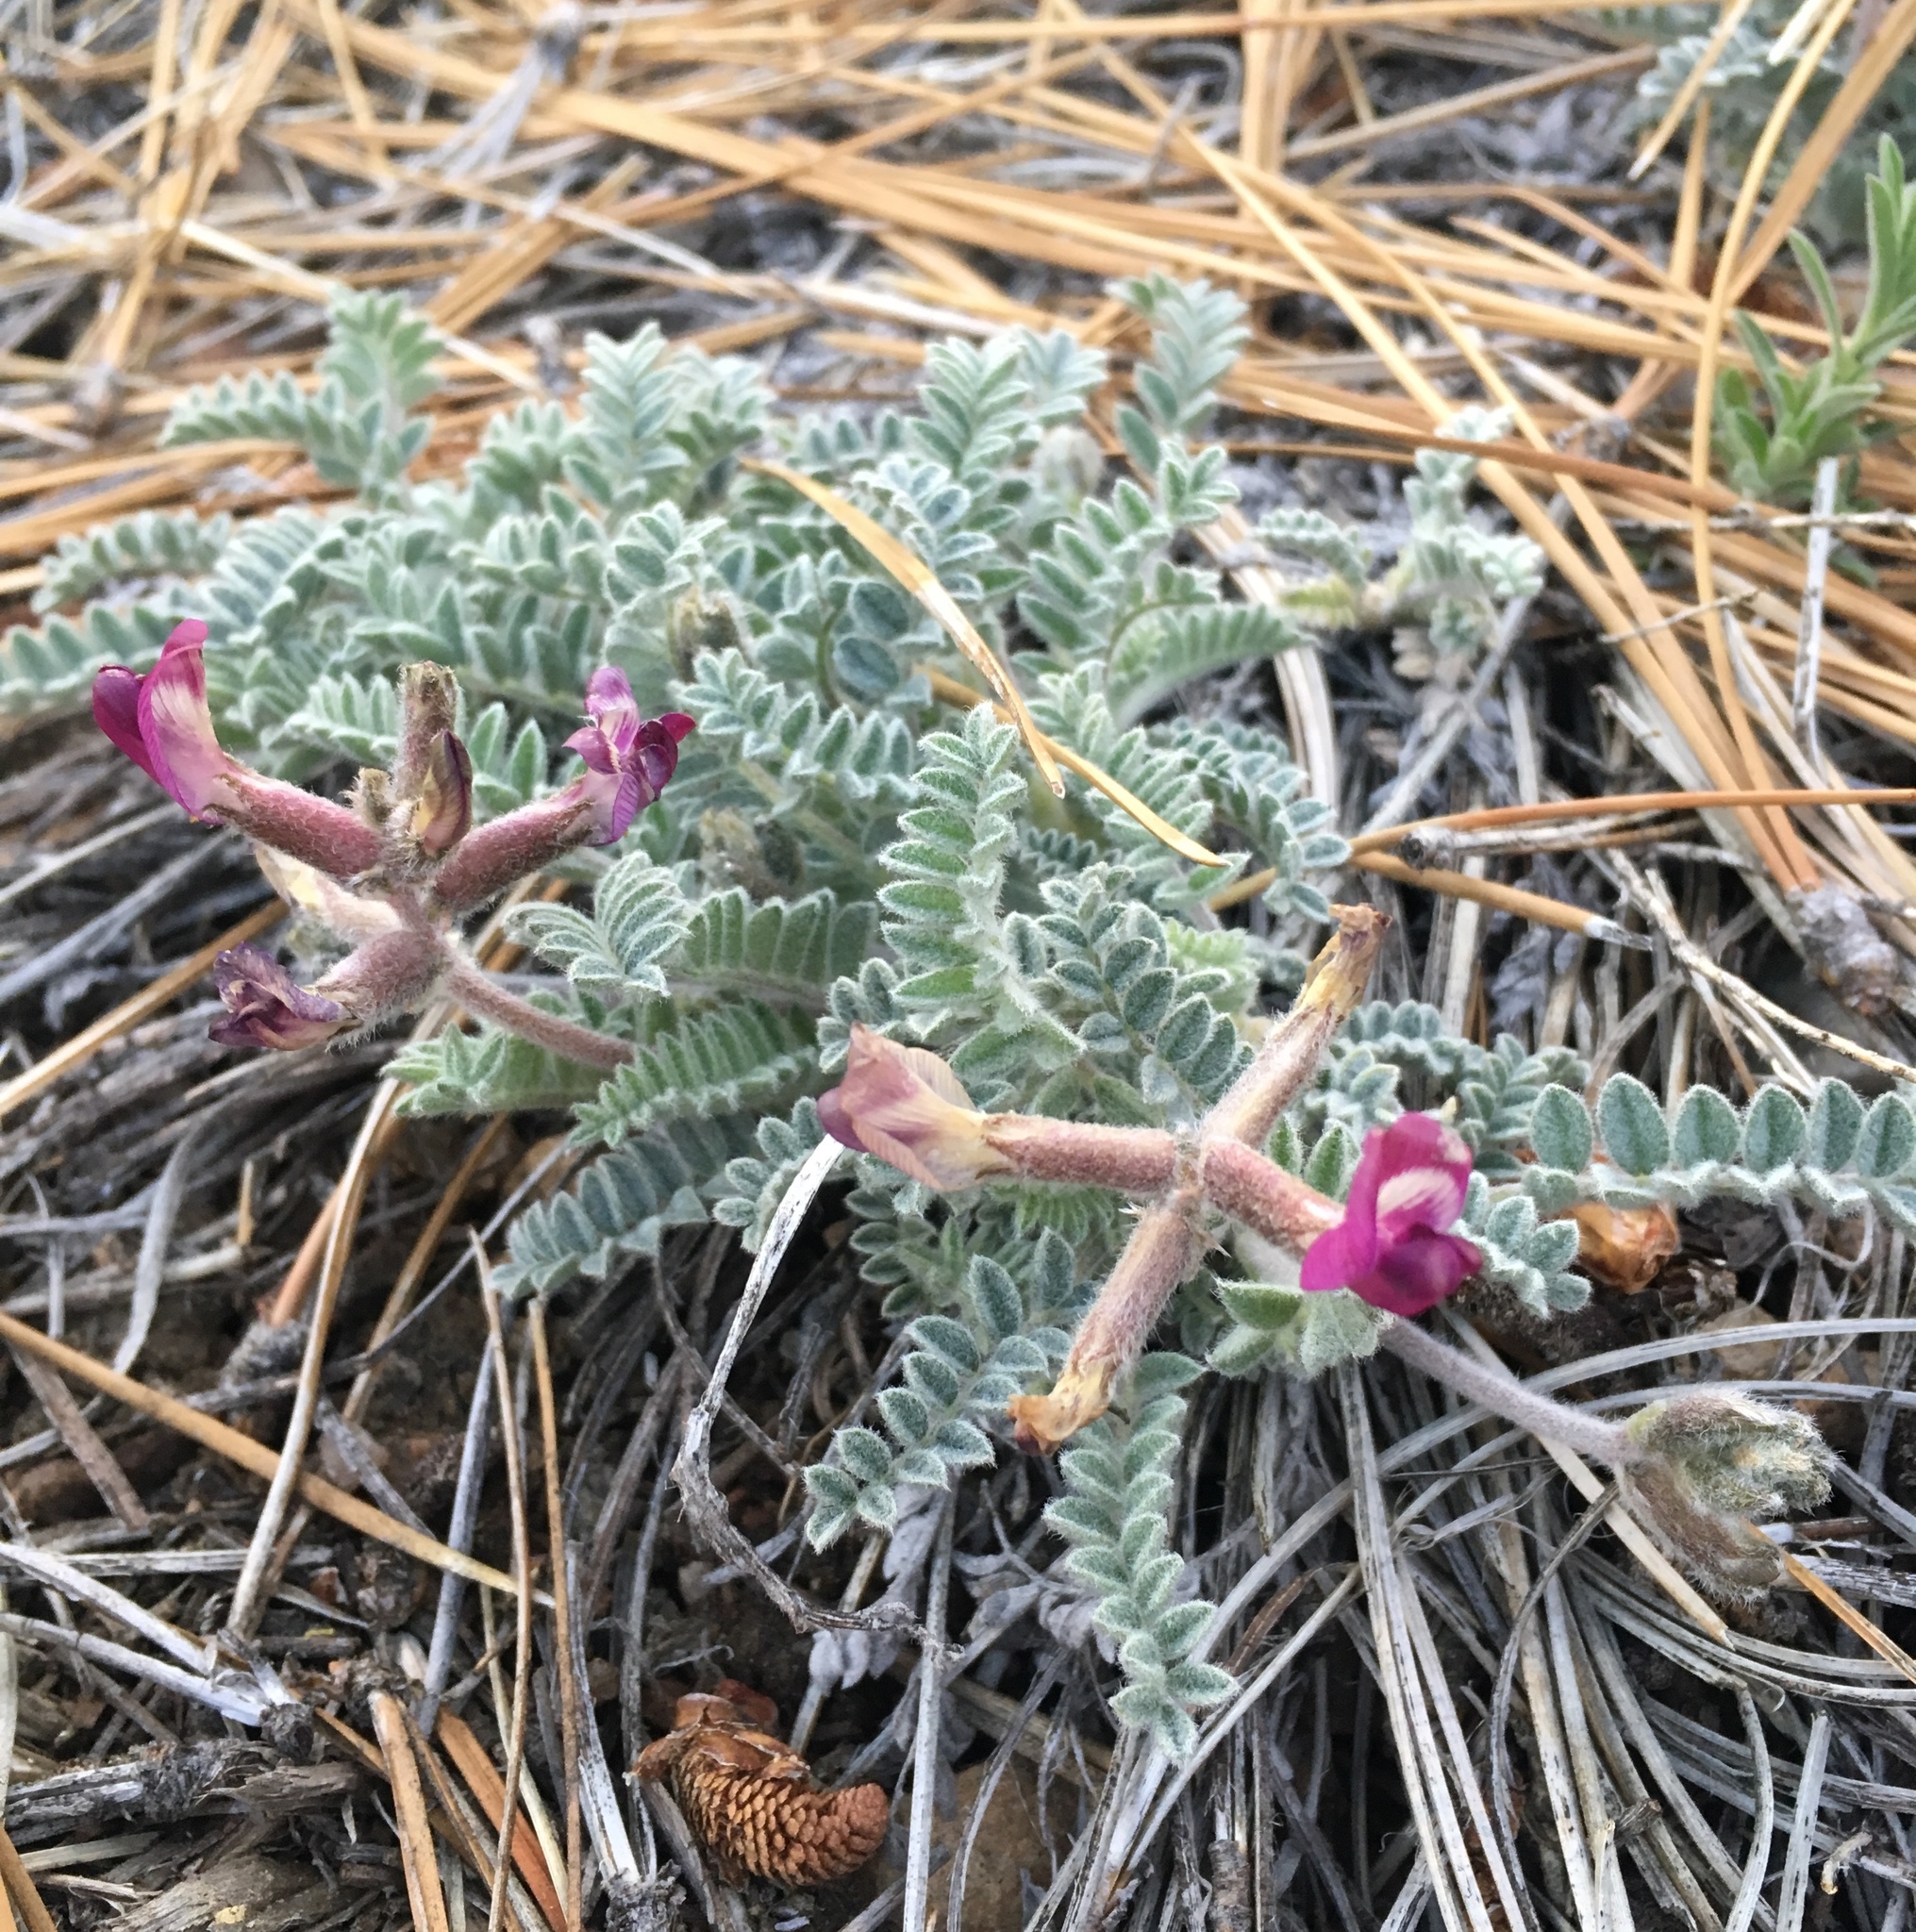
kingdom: Plantae
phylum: Tracheophyta
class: Magnoliopsida
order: Fabales
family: Fabaceae
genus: Astragalus
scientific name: Astragalus leucolobus
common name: Big bear valley woollypod
